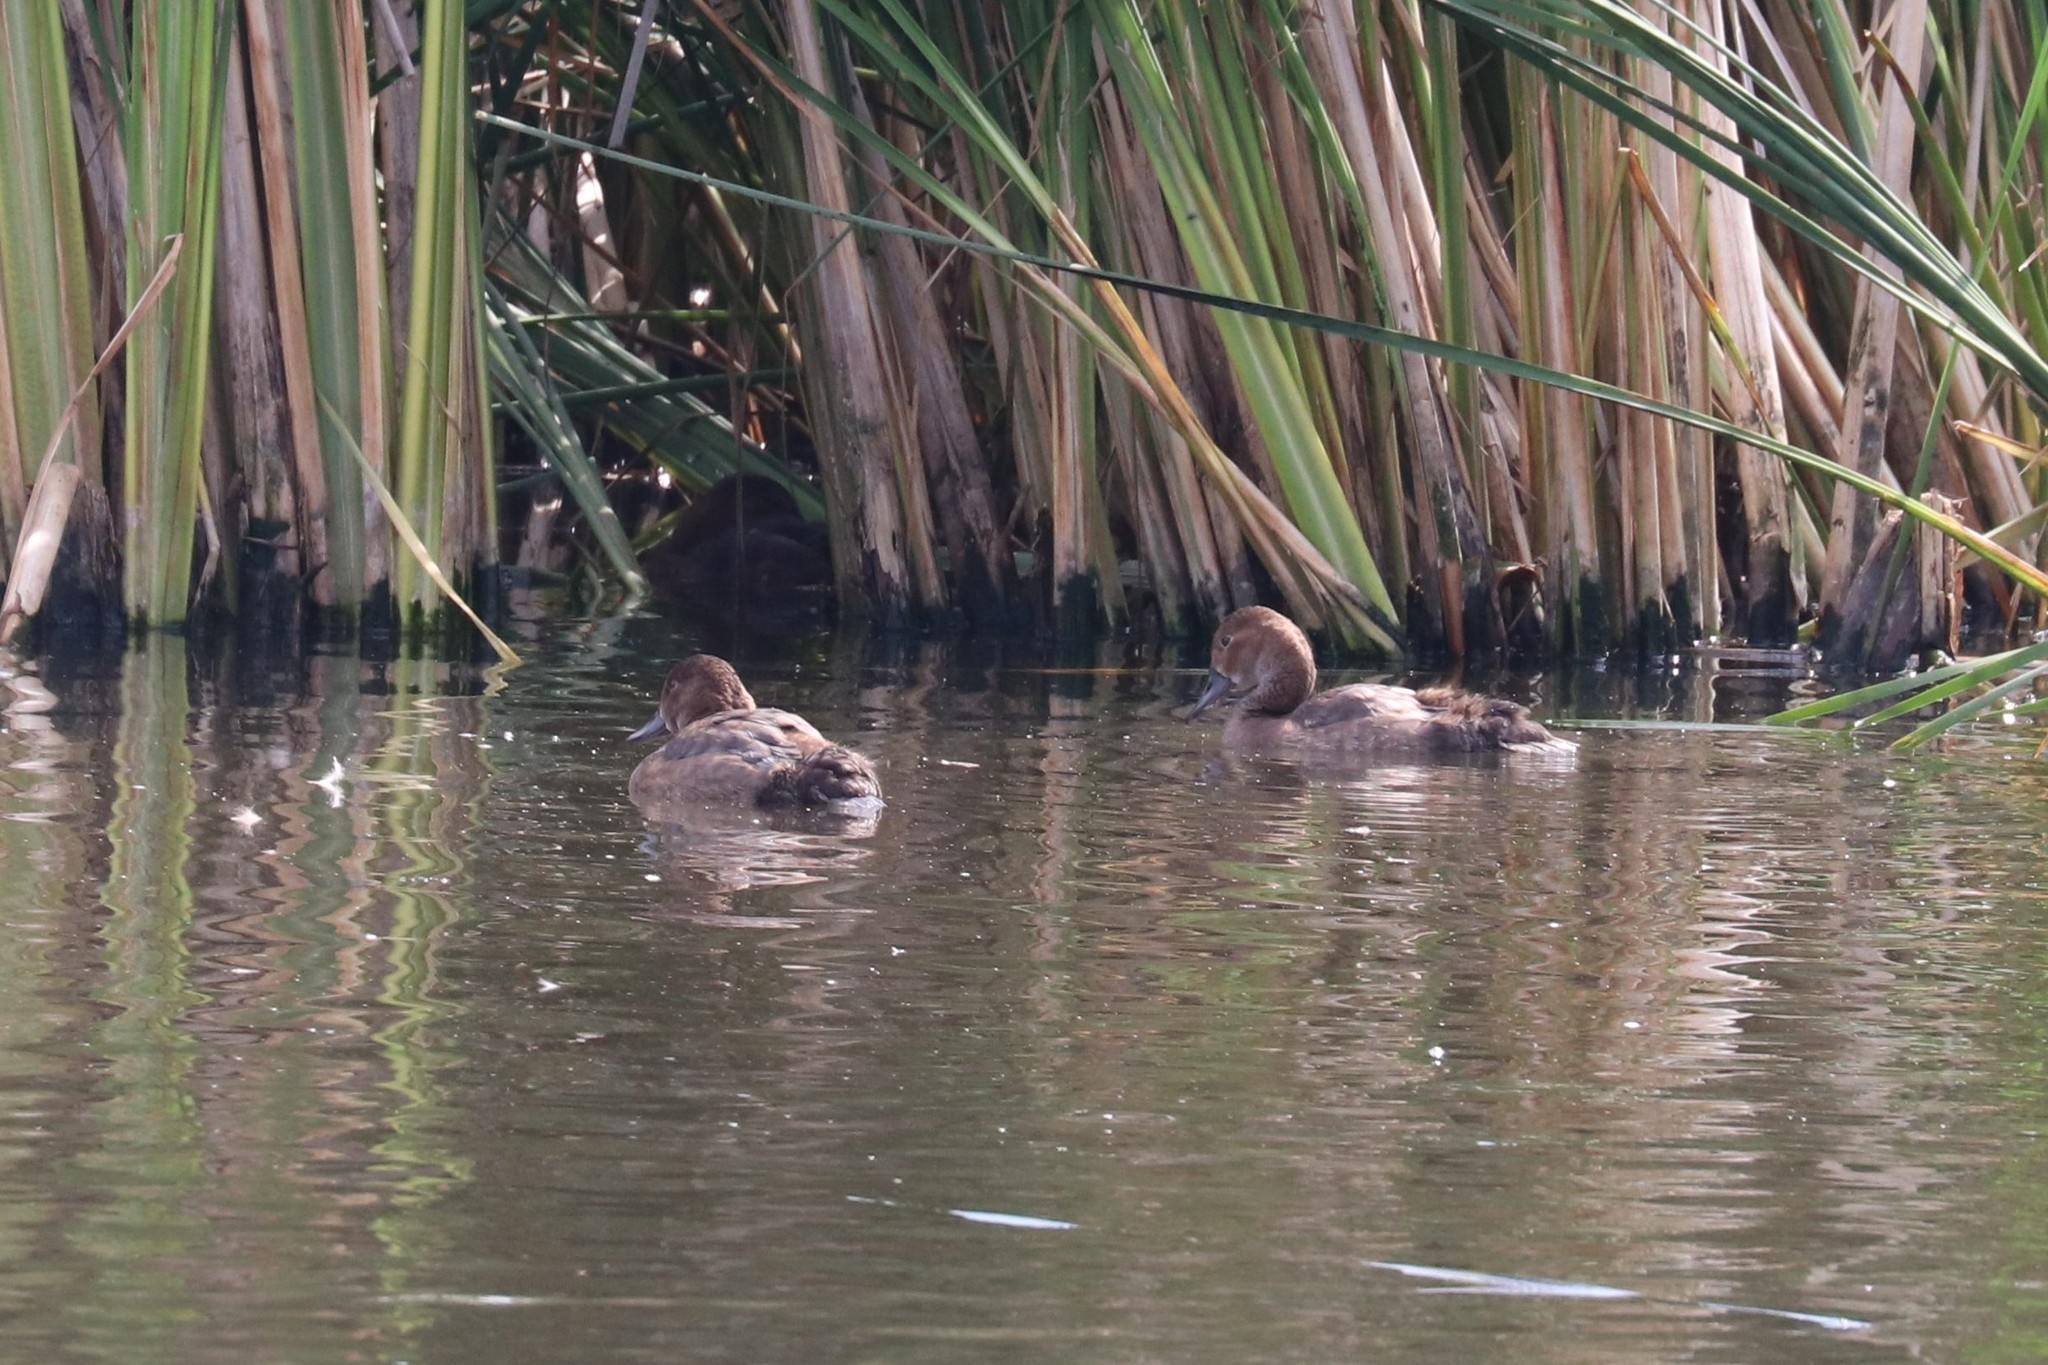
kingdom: Animalia
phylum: Chordata
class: Aves
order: Anseriformes
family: Anatidae
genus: Aythya
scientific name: Aythya ferina
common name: Common pochard
